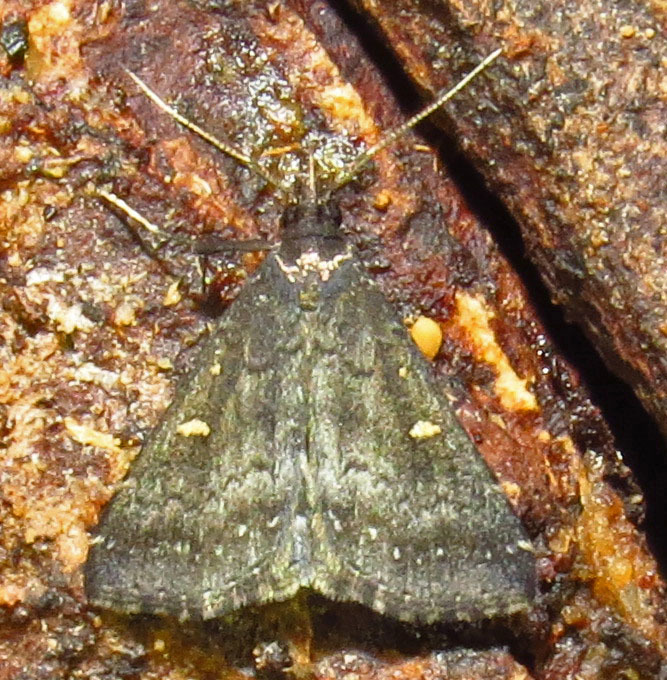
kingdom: Animalia
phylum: Arthropoda
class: Insecta
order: Lepidoptera
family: Erebidae
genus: Tetanolita
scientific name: Tetanolita mynesalis
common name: Smoky tetanolita moth
